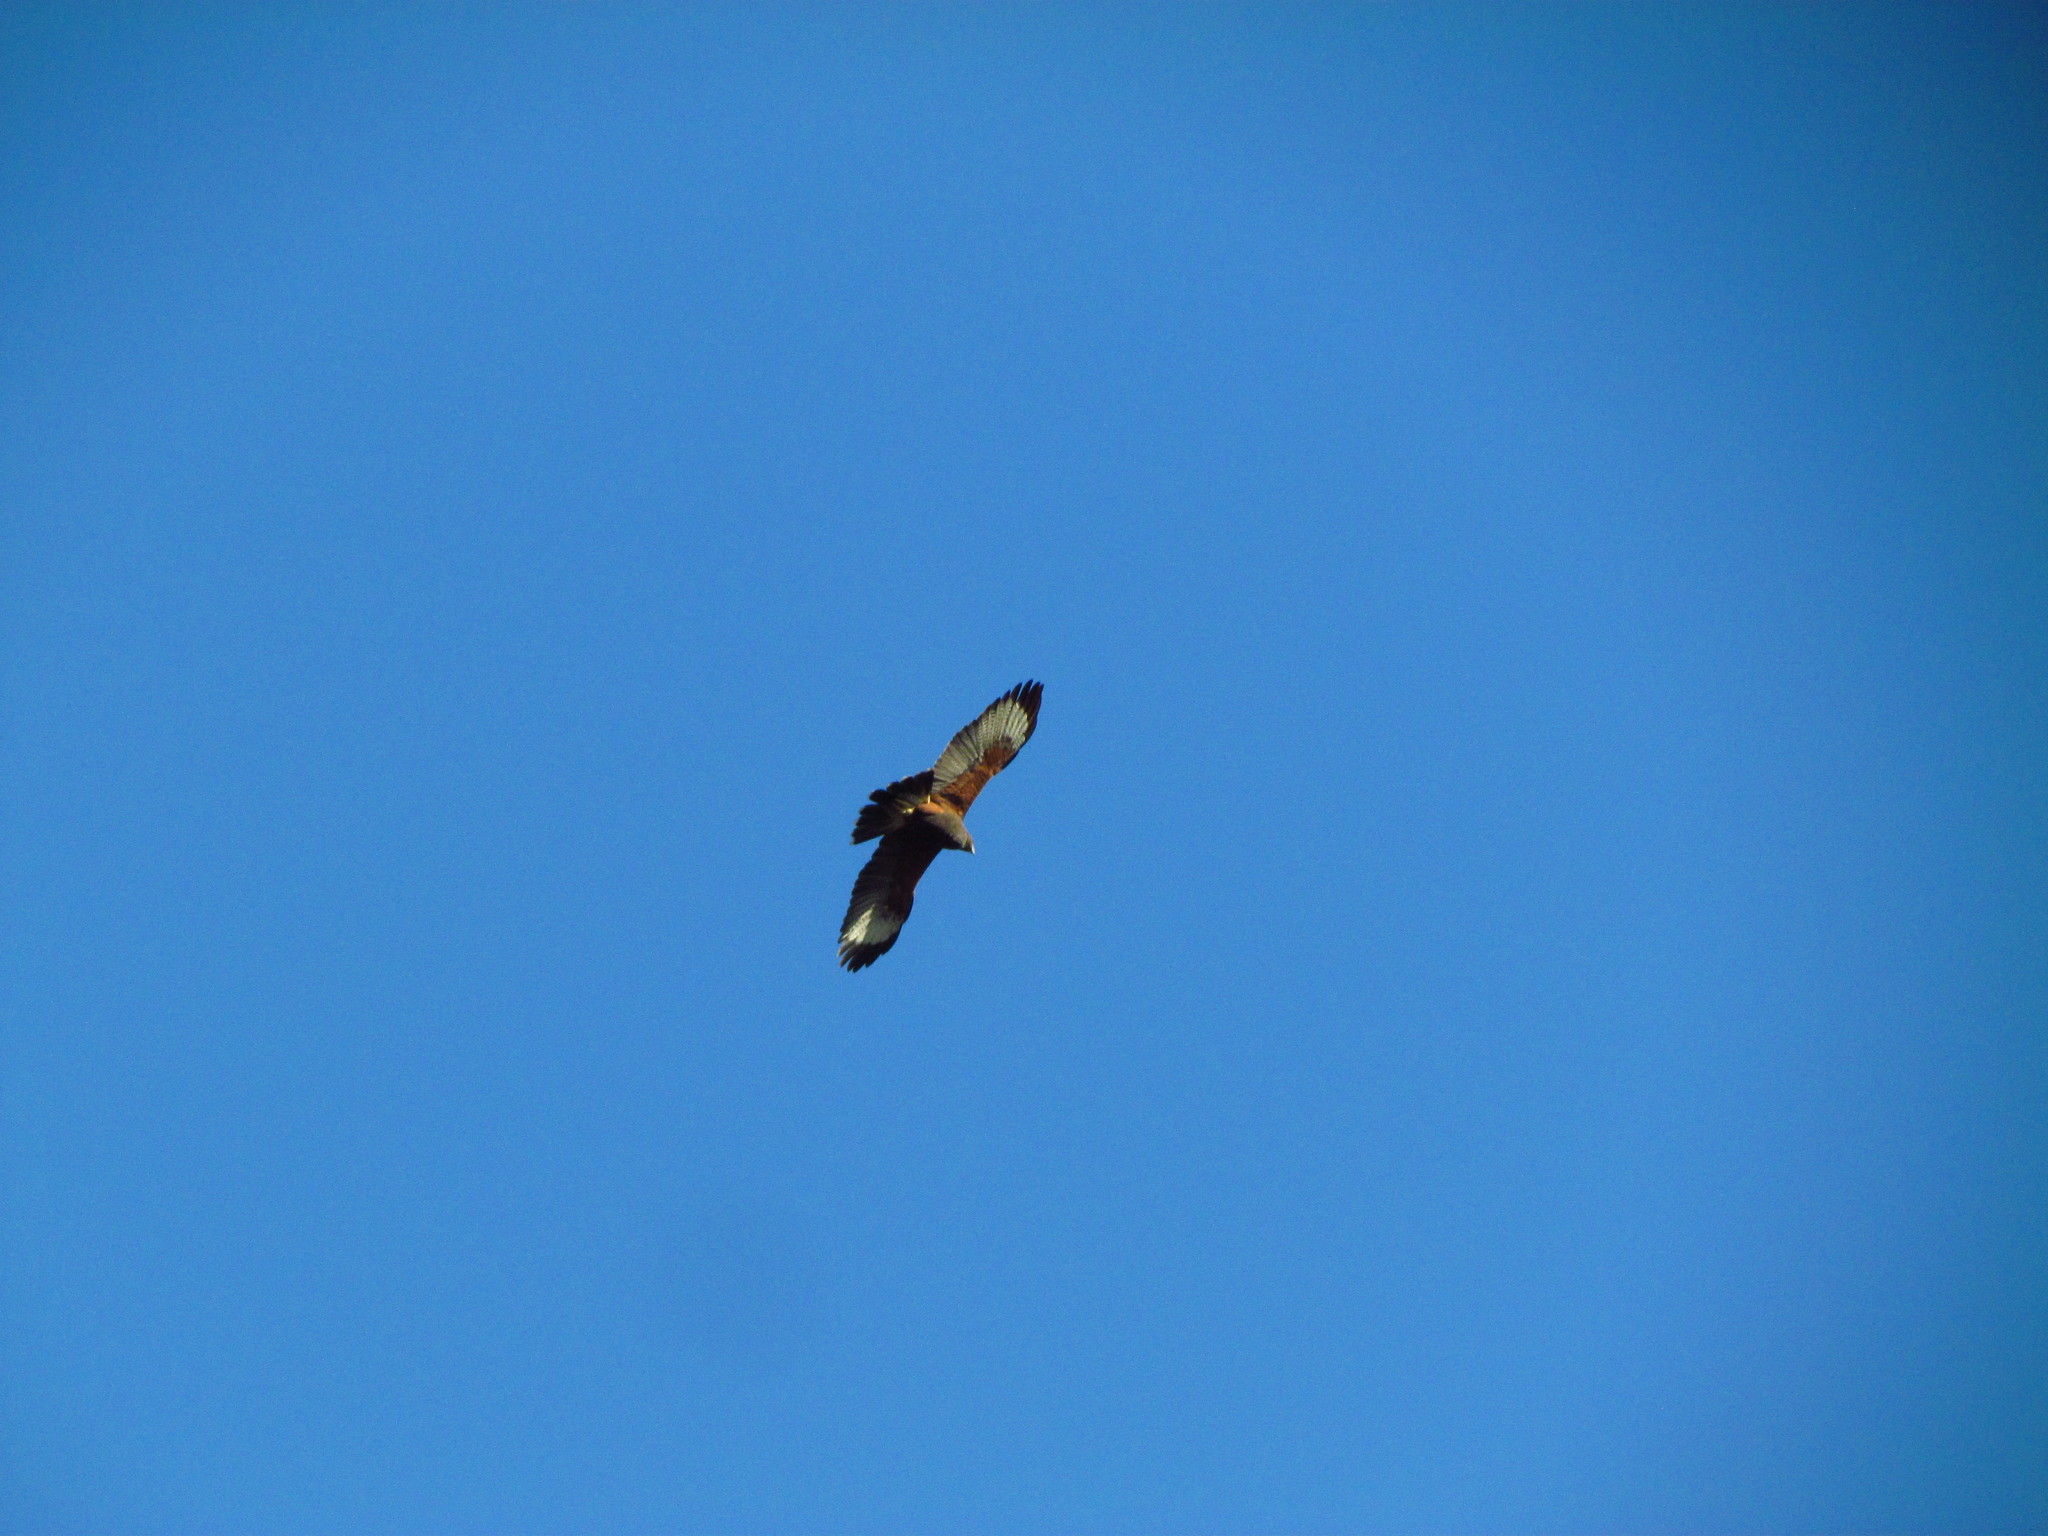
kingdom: Animalia
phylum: Chordata
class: Aves
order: Accipitriformes
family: Accipitridae
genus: Parabuteo
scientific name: Parabuteo unicinctus
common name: Harris's hawk
